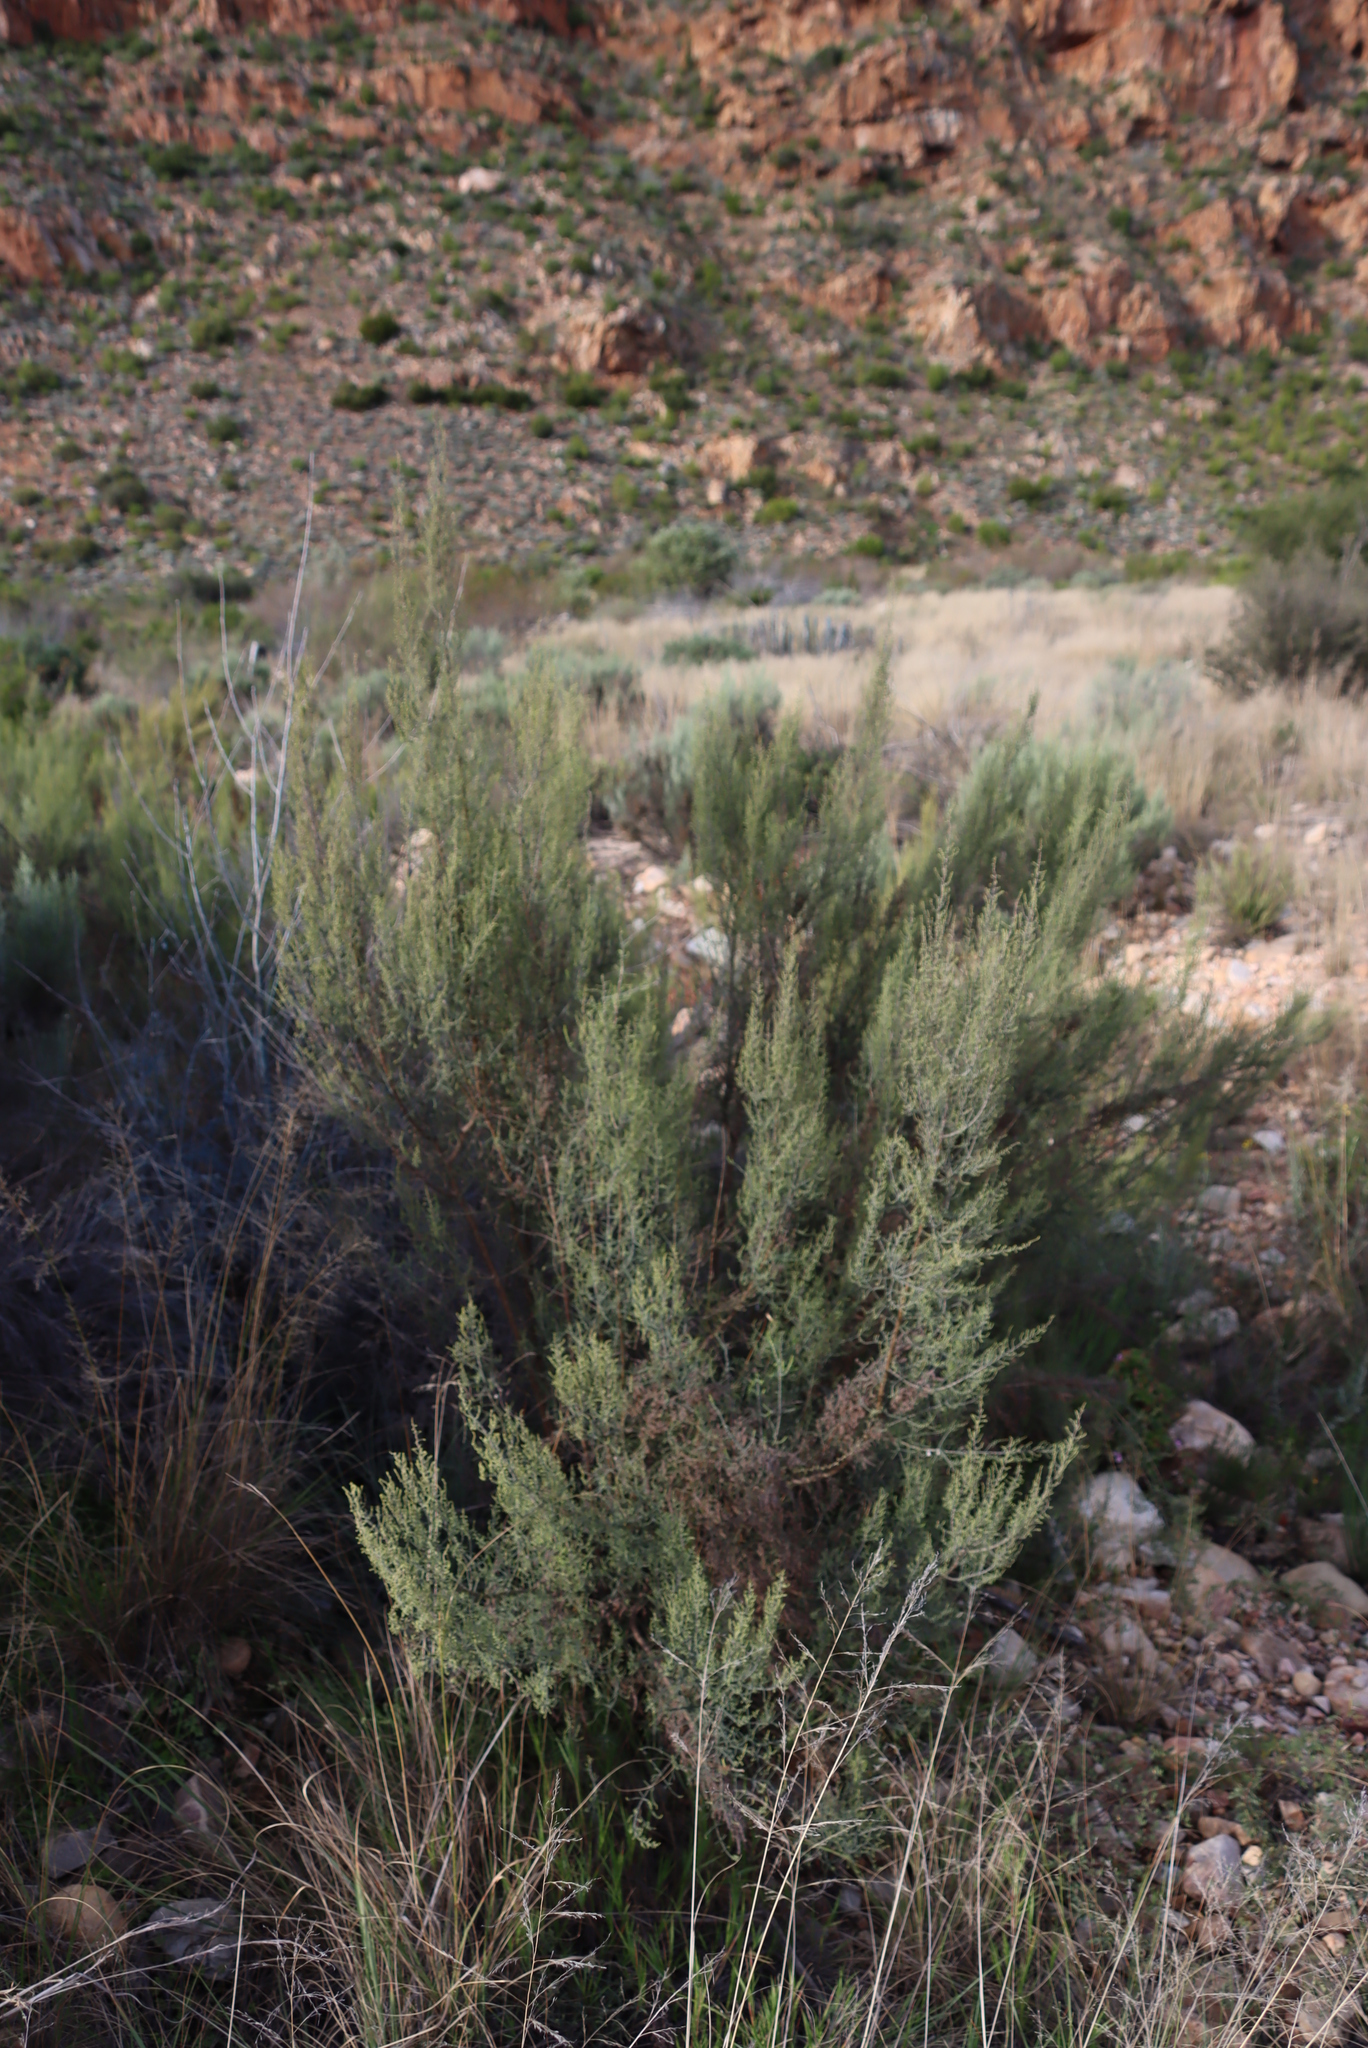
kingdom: Plantae
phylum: Tracheophyta
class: Magnoliopsida
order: Asterales
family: Asteraceae
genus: Dicerothamnus
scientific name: Dicerothamnus rhinocerotis
